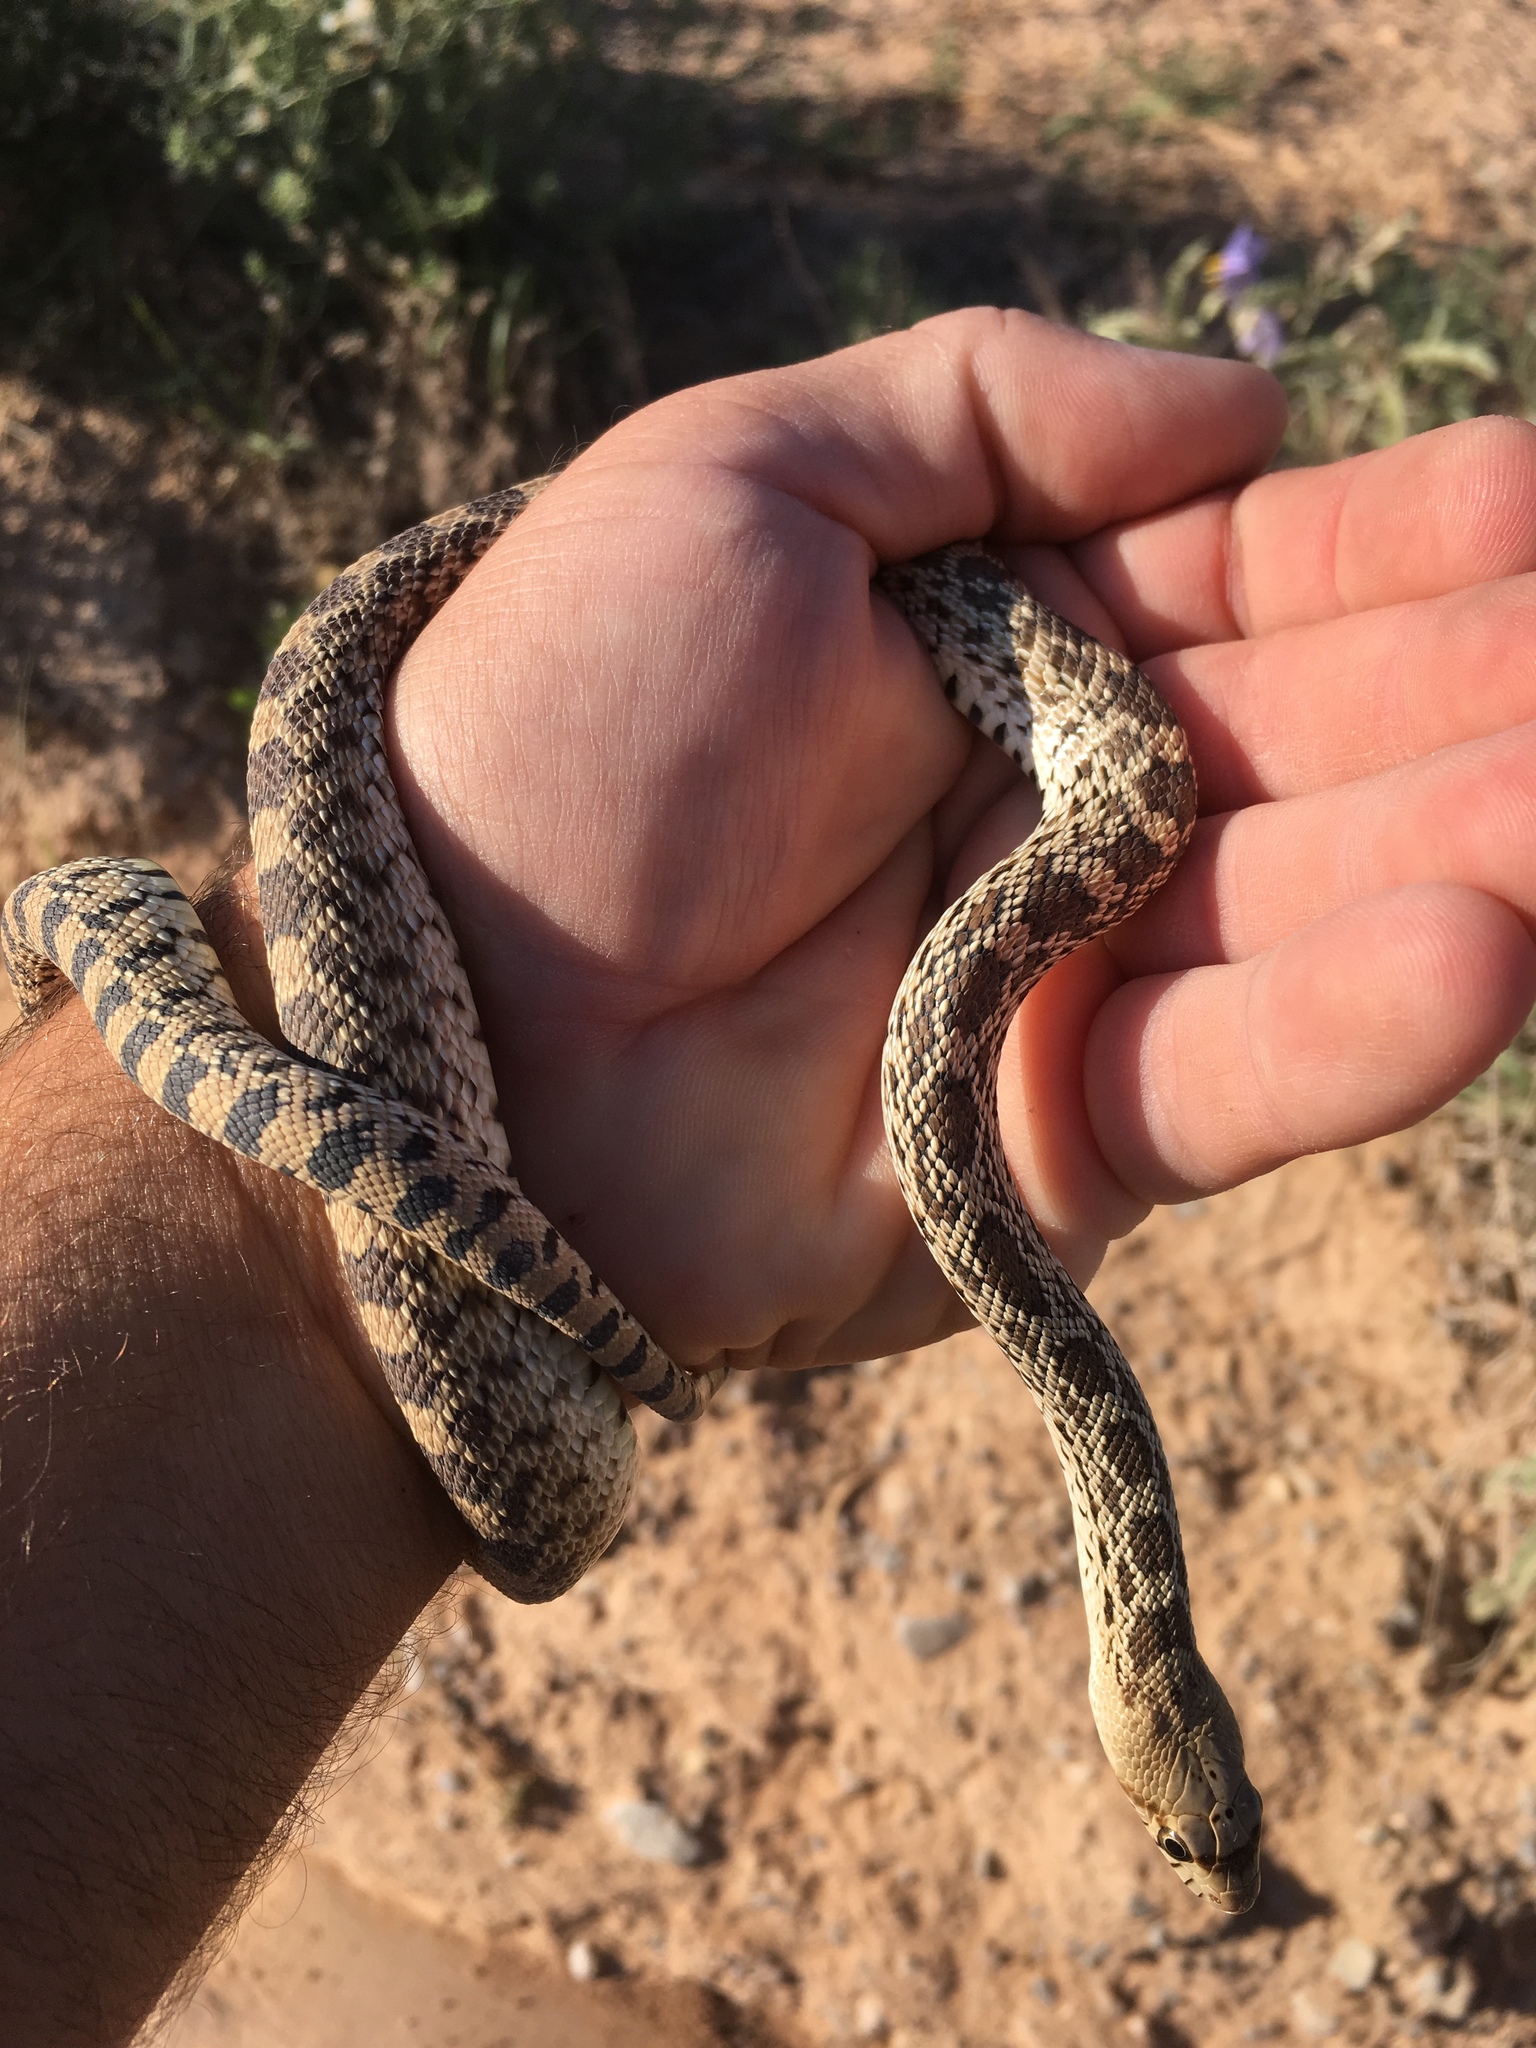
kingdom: Animalia
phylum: Chordata
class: Squamata
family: Colubridae
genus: Pituophis
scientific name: Pituophis catenifer
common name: Gopher snake
